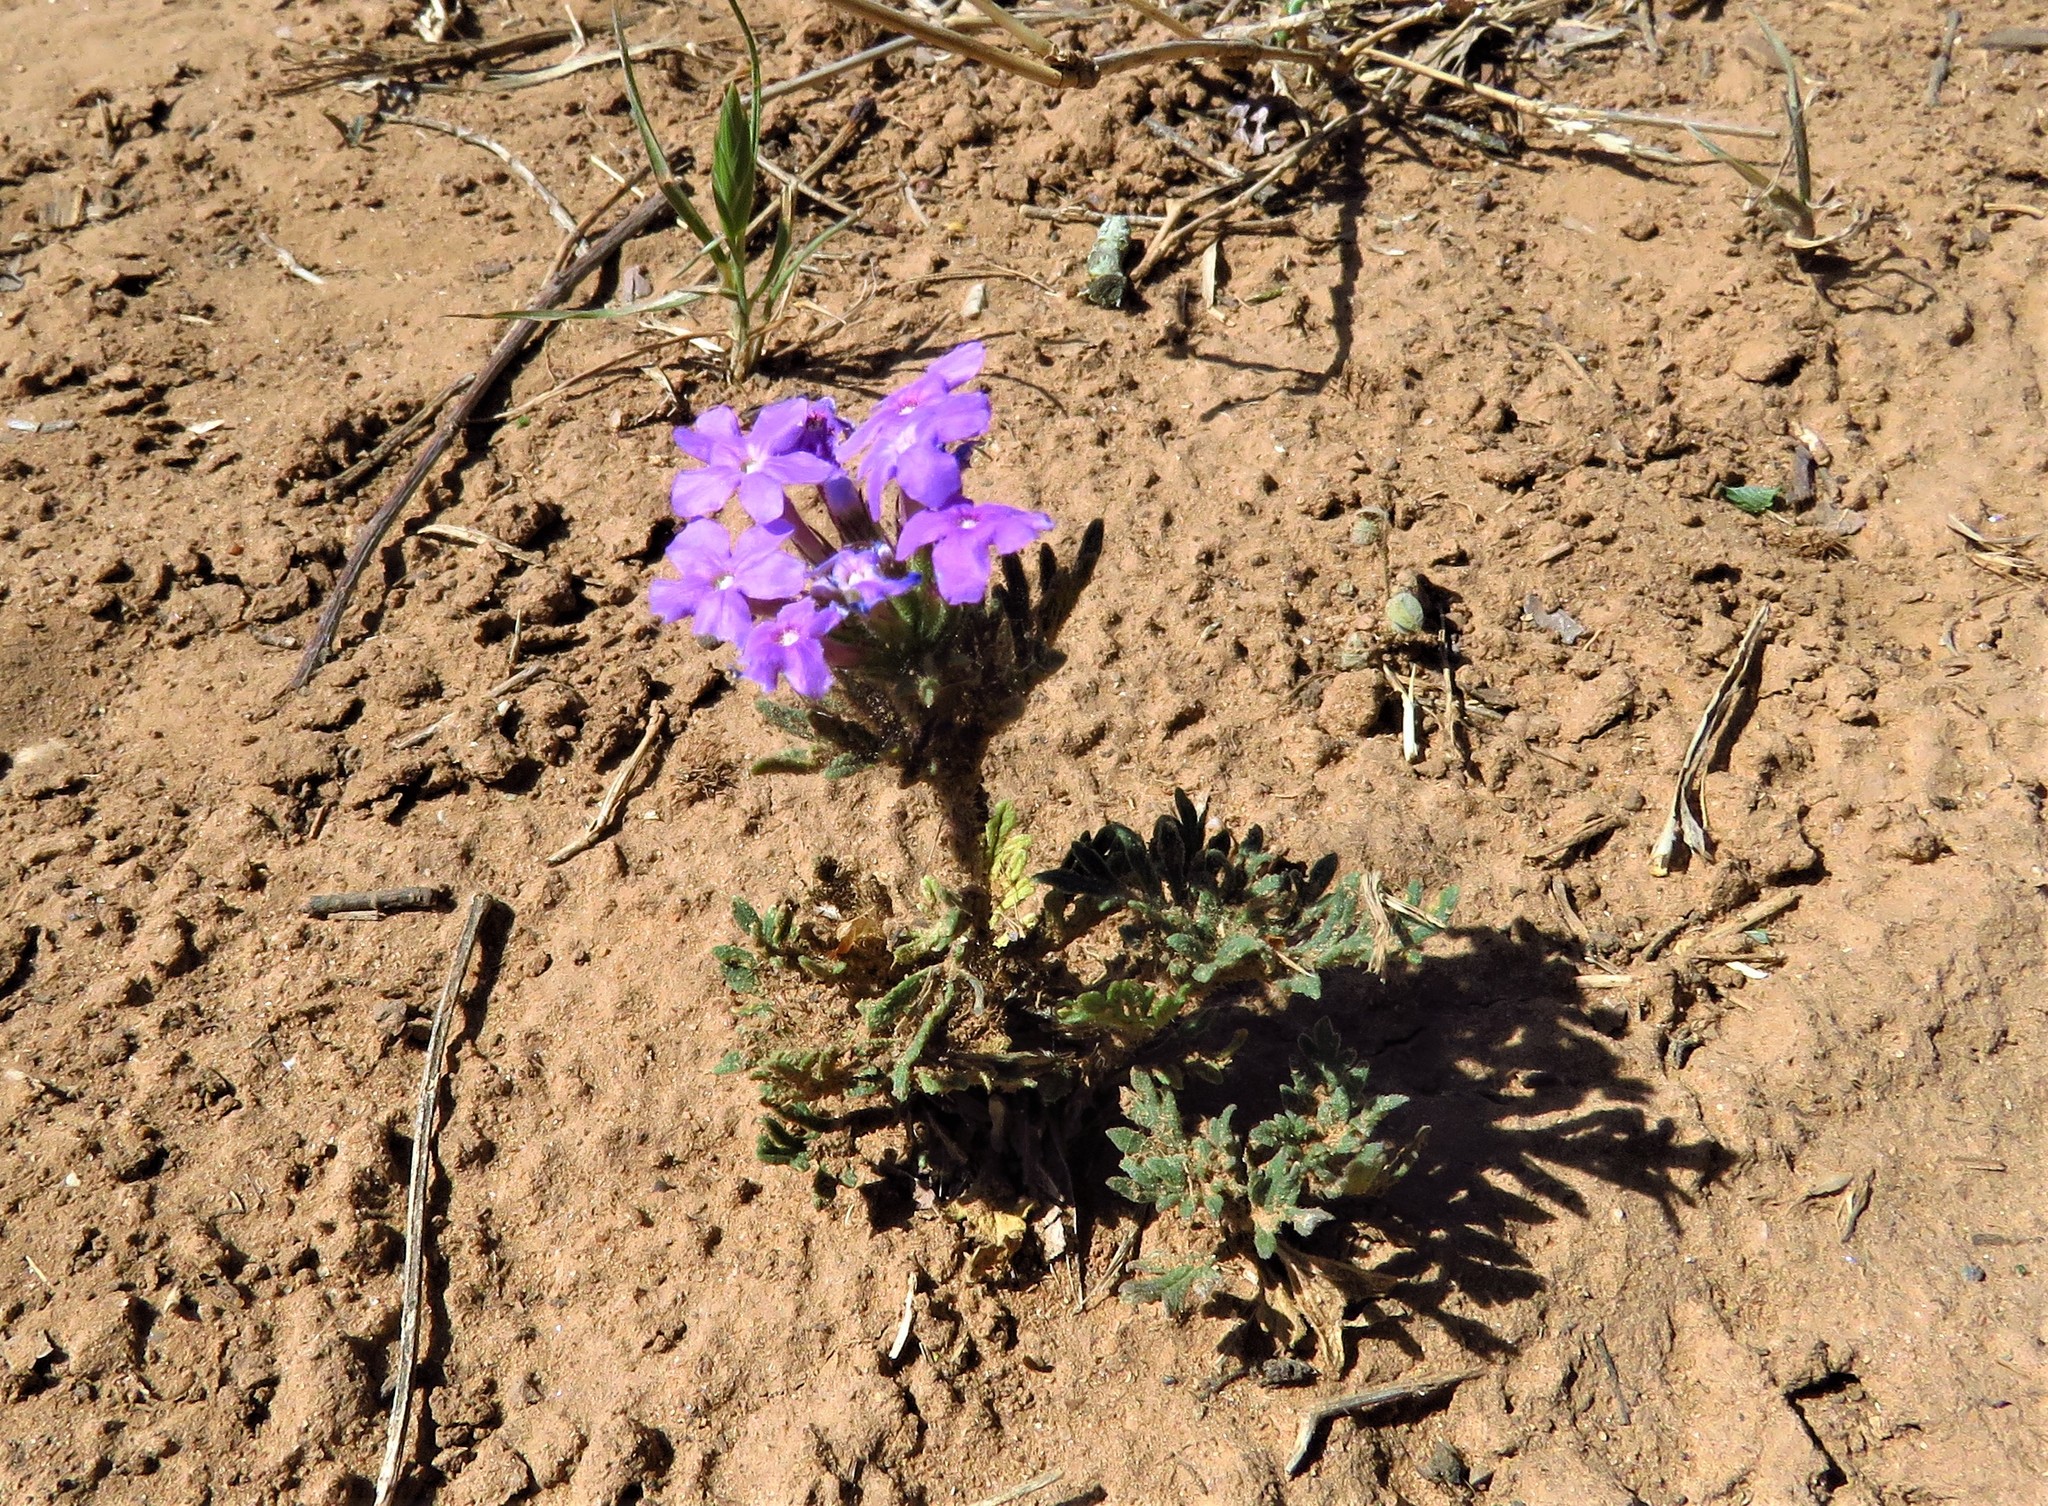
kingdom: Plantae
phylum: Tracheophyta
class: Magnoliopsida
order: Lamiales
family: Verbenaceae
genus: Verbena
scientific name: Verbena bipinnatifida
